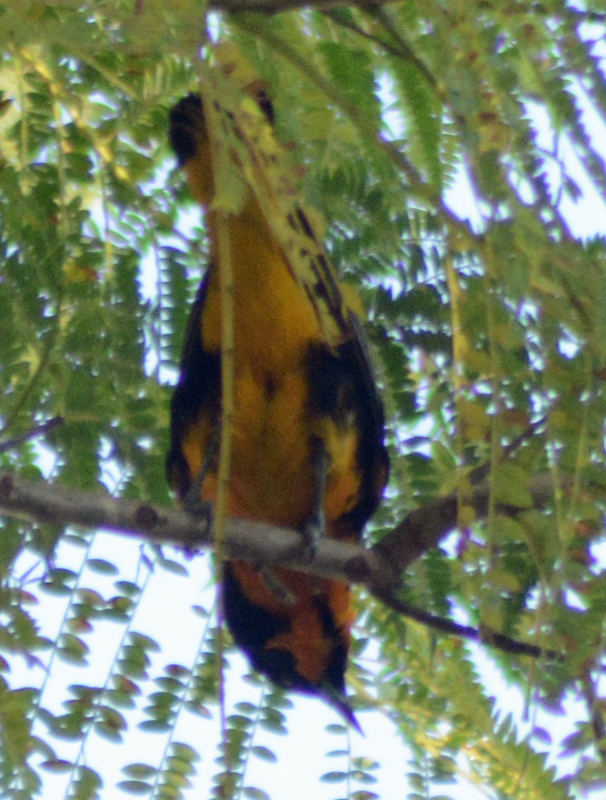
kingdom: Animalia
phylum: Chordata
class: Aves
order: Passeriformes
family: Icteridae
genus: Icterus
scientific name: Icterus abeillei
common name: Black-backed oriole
